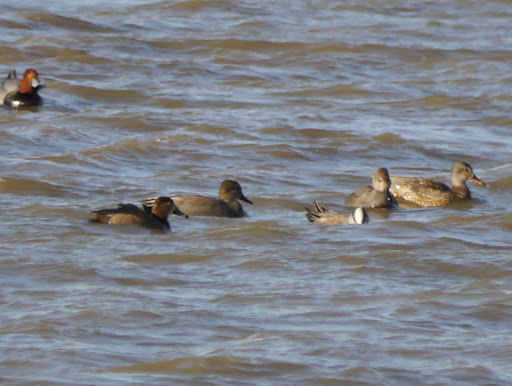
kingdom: Animalia
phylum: Chordata
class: Aves
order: Anseriformes
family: Anatidae
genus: Mareca
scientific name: Mareca strepera
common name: Gadwall
